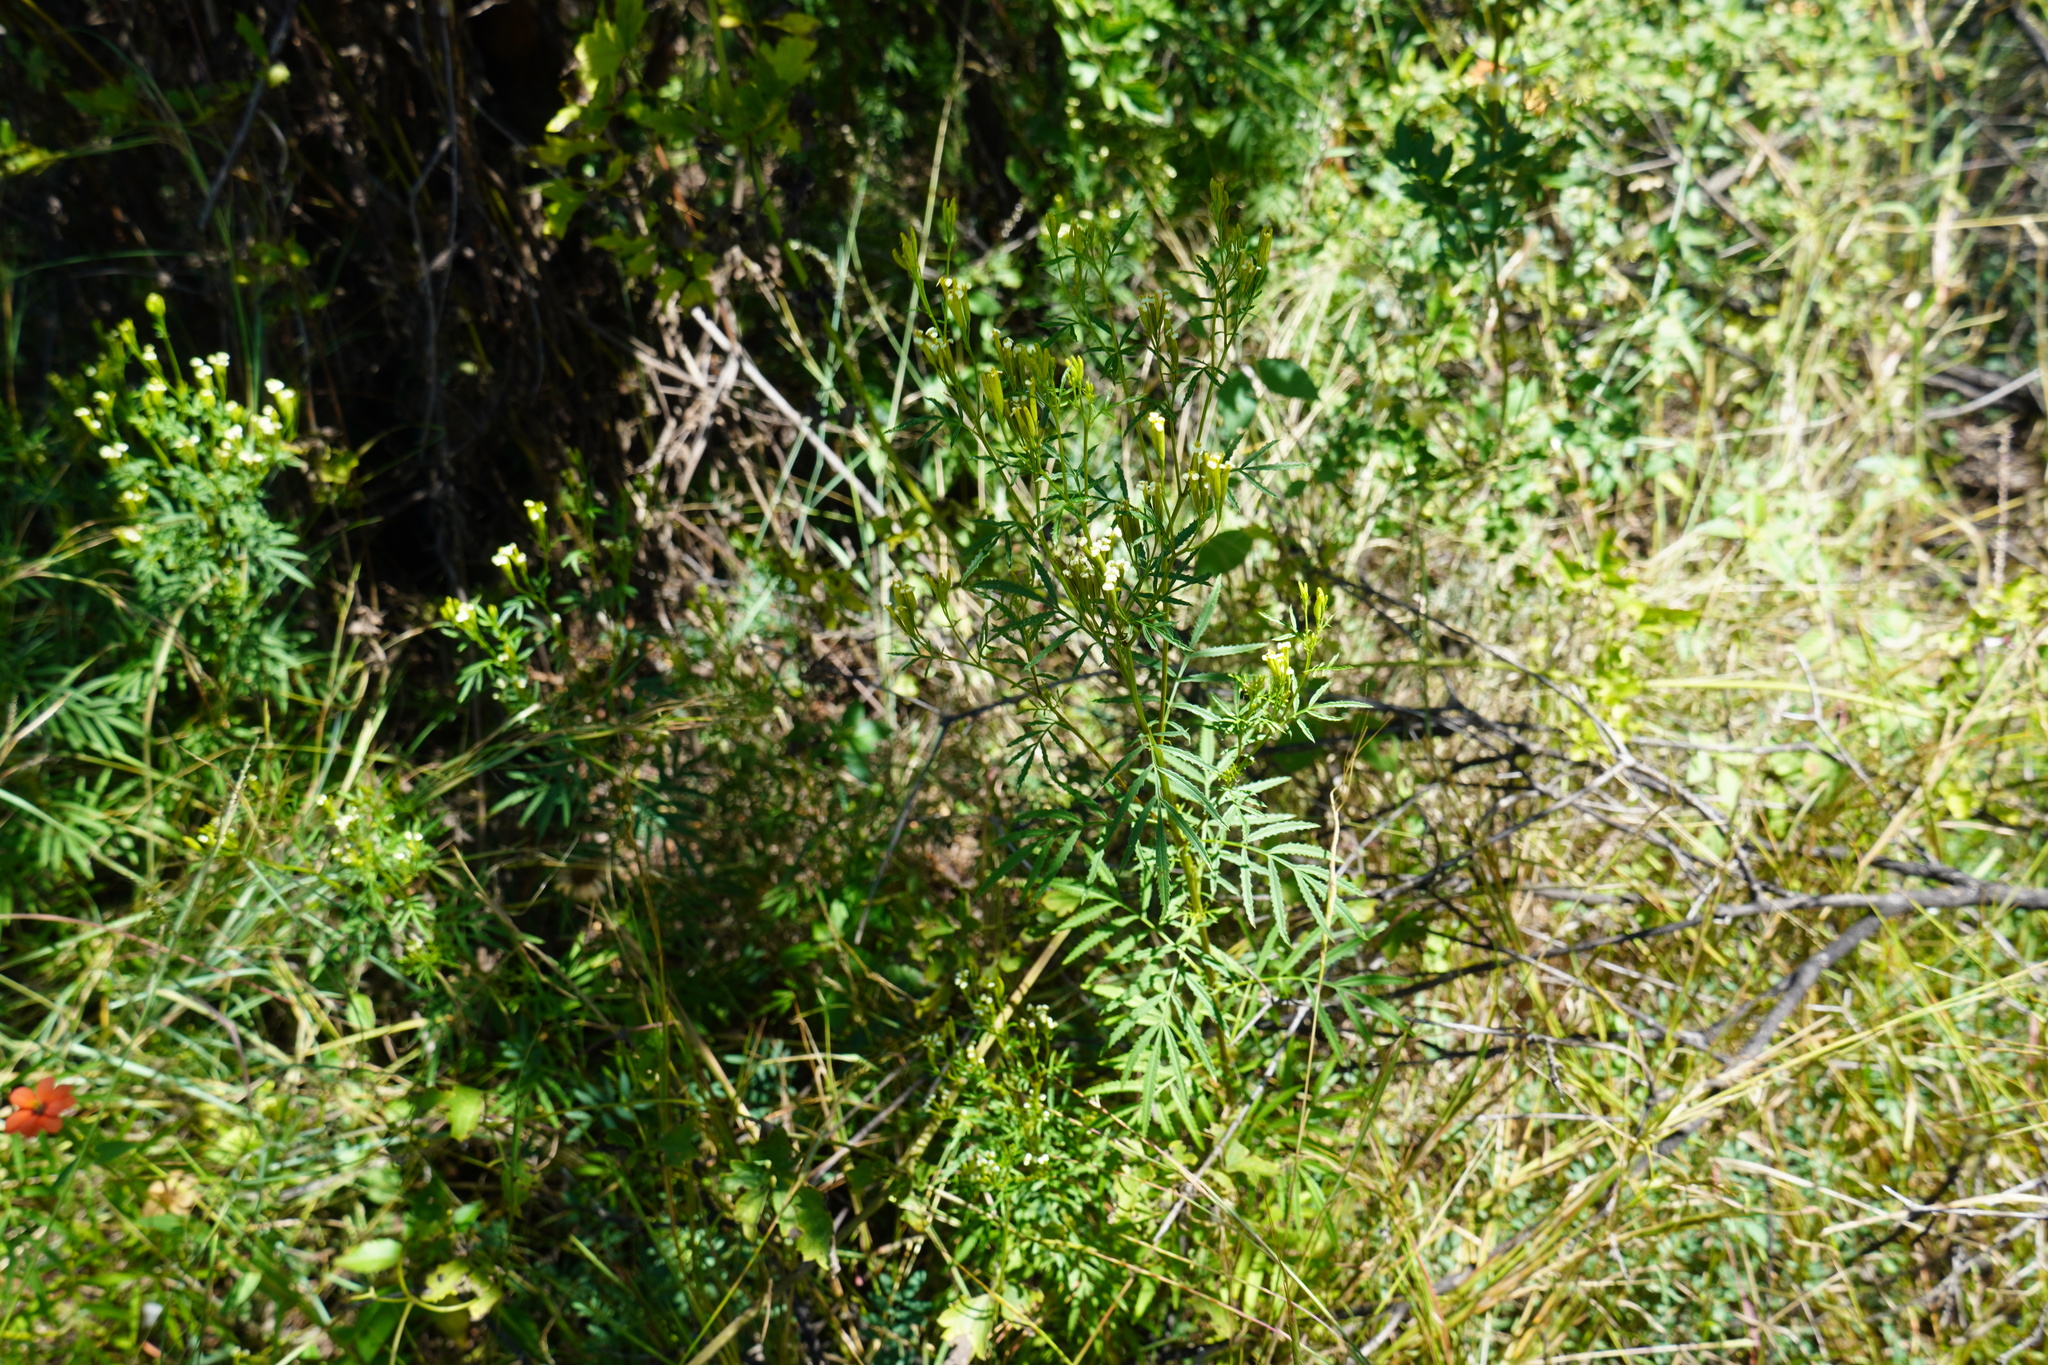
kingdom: Plantae
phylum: Tracheophyta
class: Magnoliopsida
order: Asterales
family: Asteraceae
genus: Tagetes
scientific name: Tagetes minuta
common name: Muster john henry
